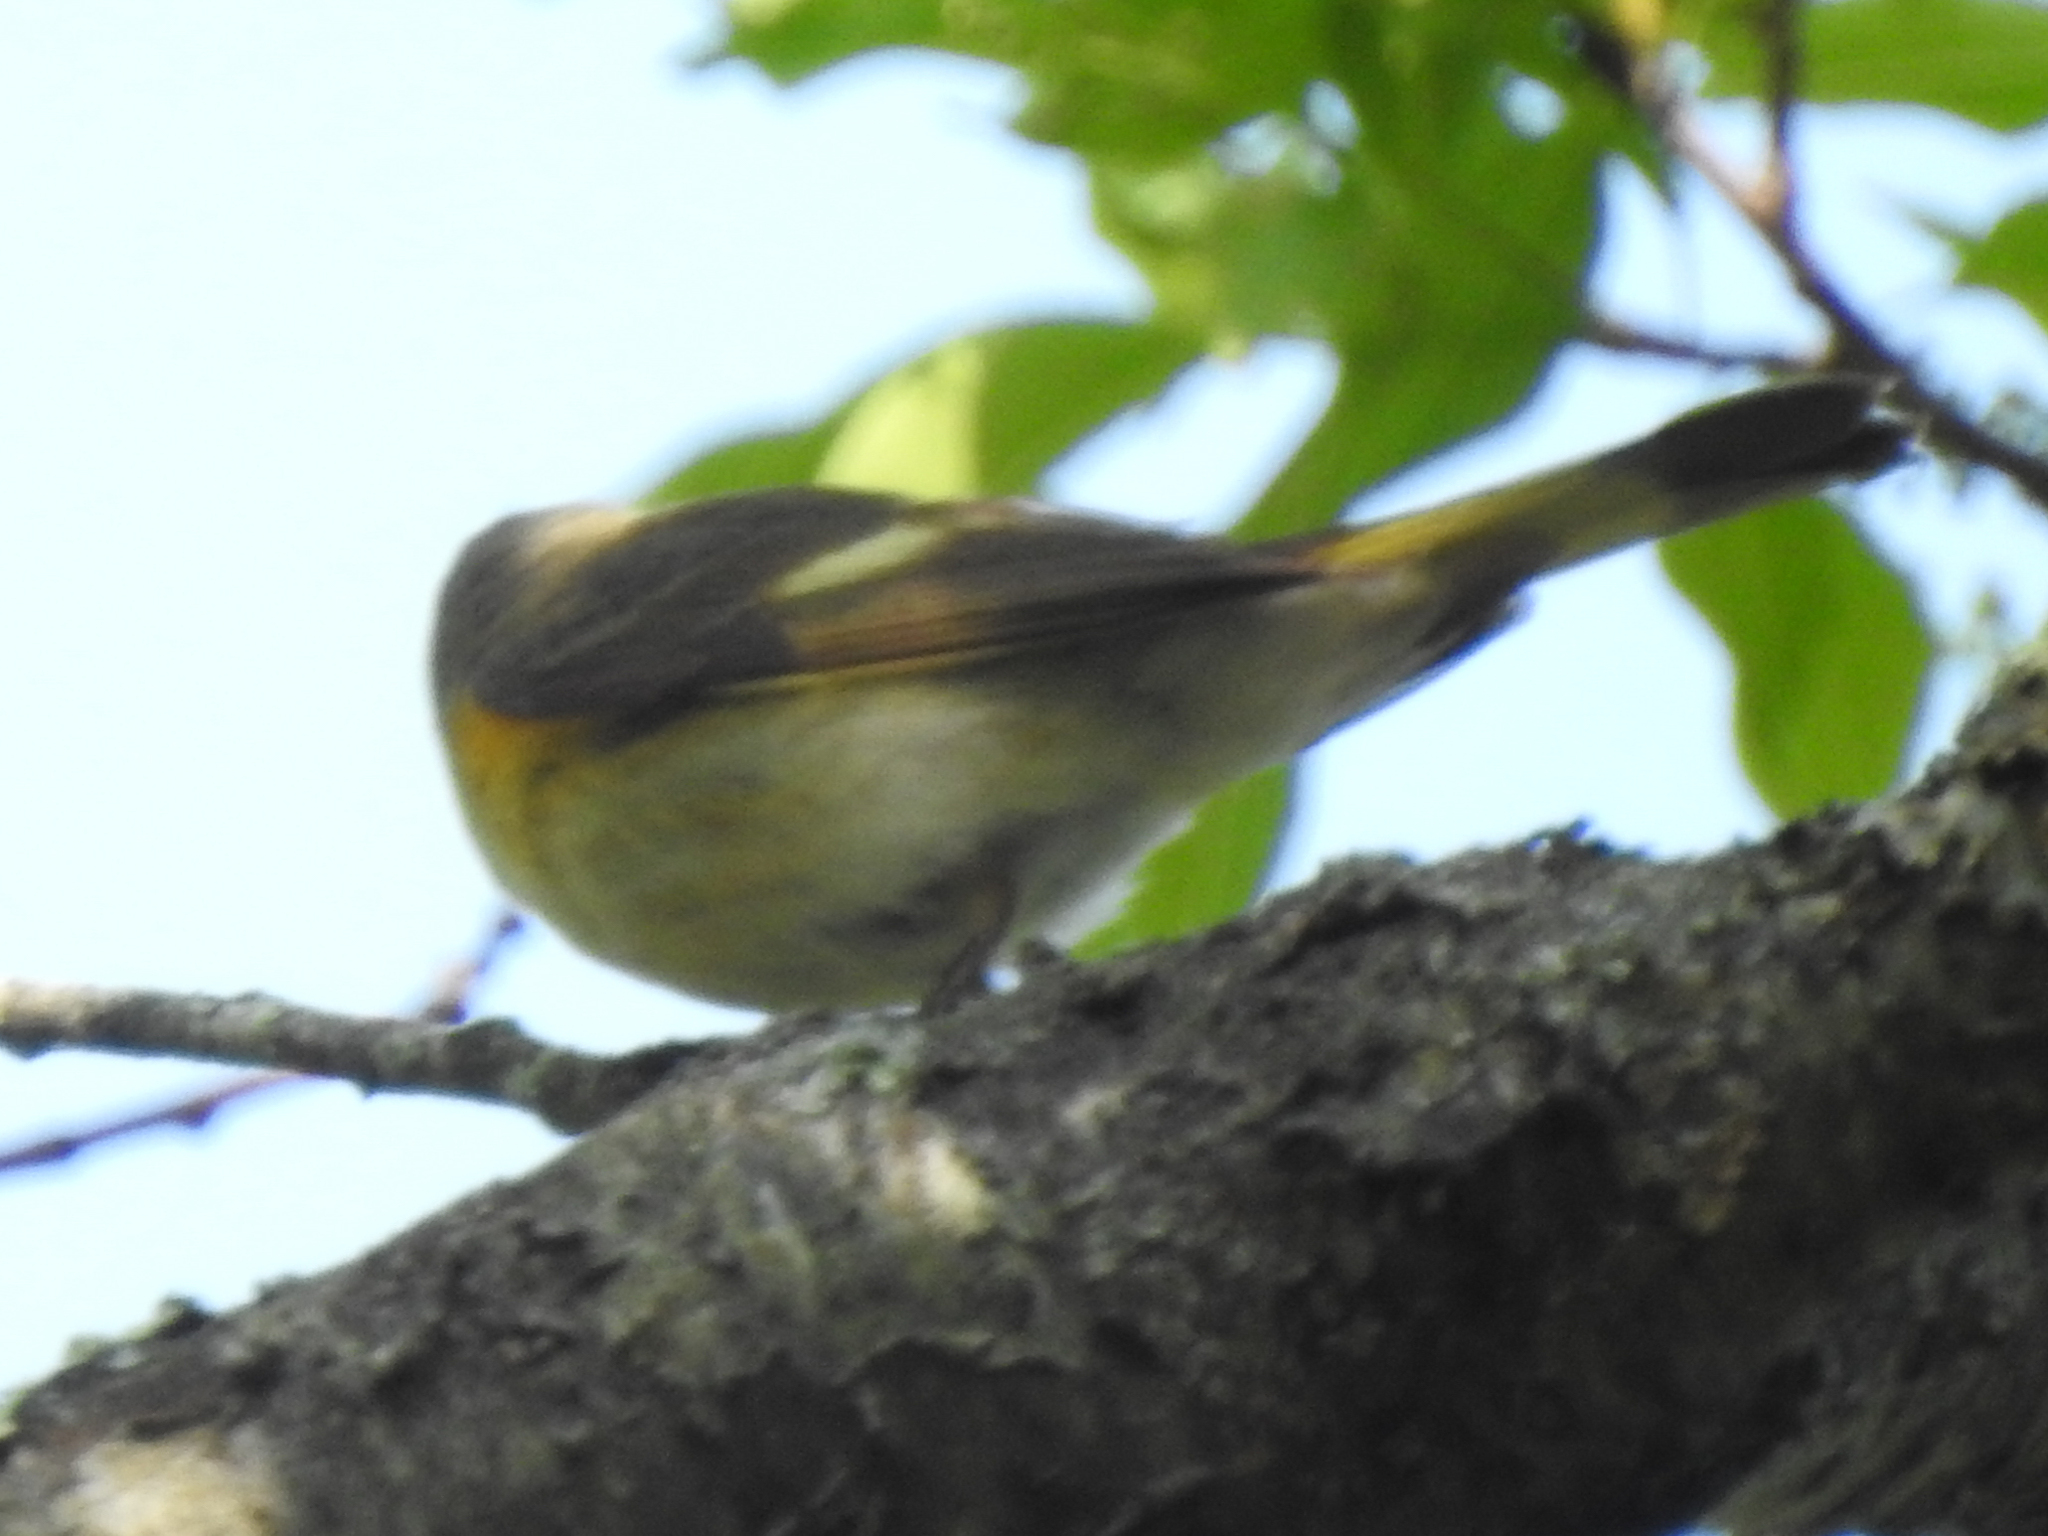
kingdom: Animalia
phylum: Chordata
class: Aves
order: Passeriformes
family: Parulidae
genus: Setophaga
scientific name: Setophaga ruticilla
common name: American redstart
